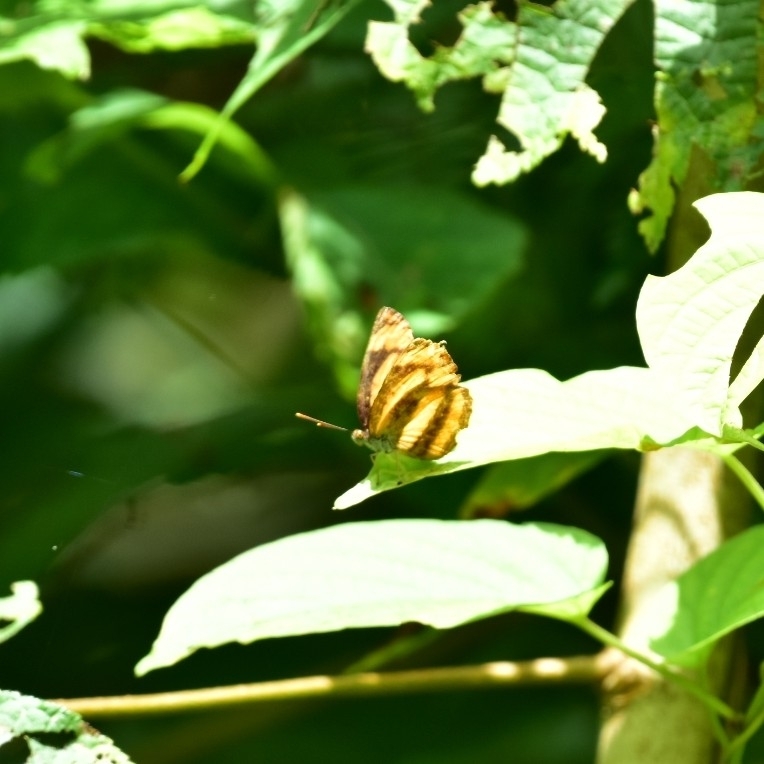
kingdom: Animalia
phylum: Arthropoda
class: Insecta
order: Lepidoptera
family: Nymphalidae
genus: Pantoporia
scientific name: Pantoporia hordonia
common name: Common lascar
